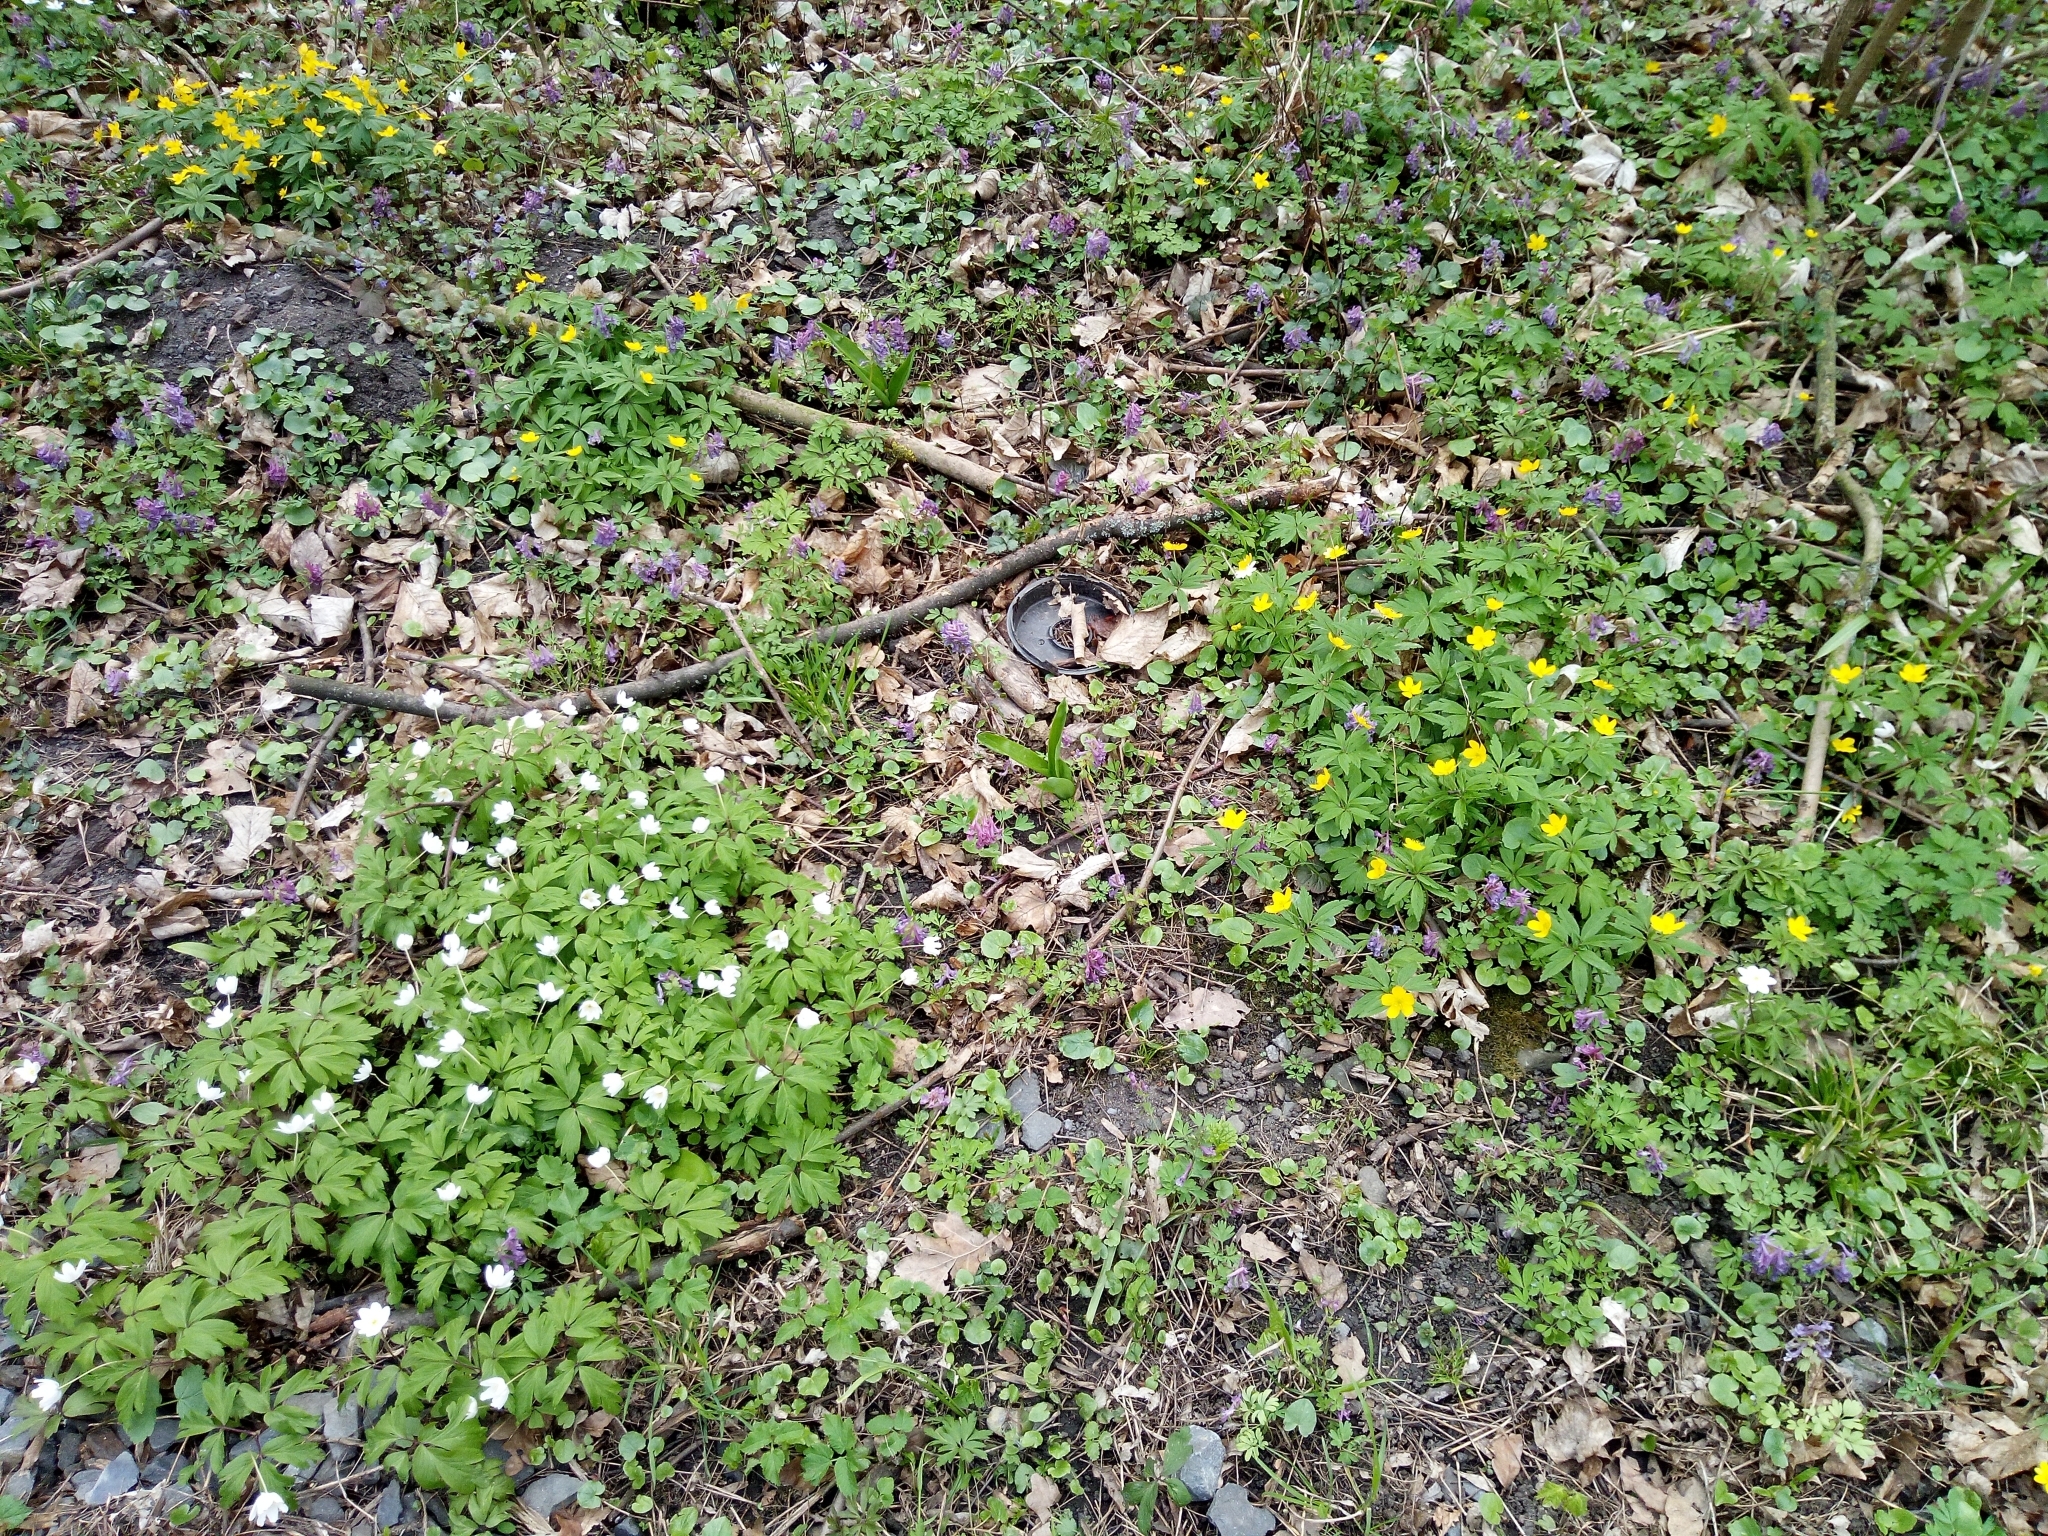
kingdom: Plantae
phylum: Tracheophyta
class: Magnoliopsida
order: Ranunculales
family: Ranunculaceae
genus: Anemone
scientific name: Anemone nemorosa
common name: Wood anemone
